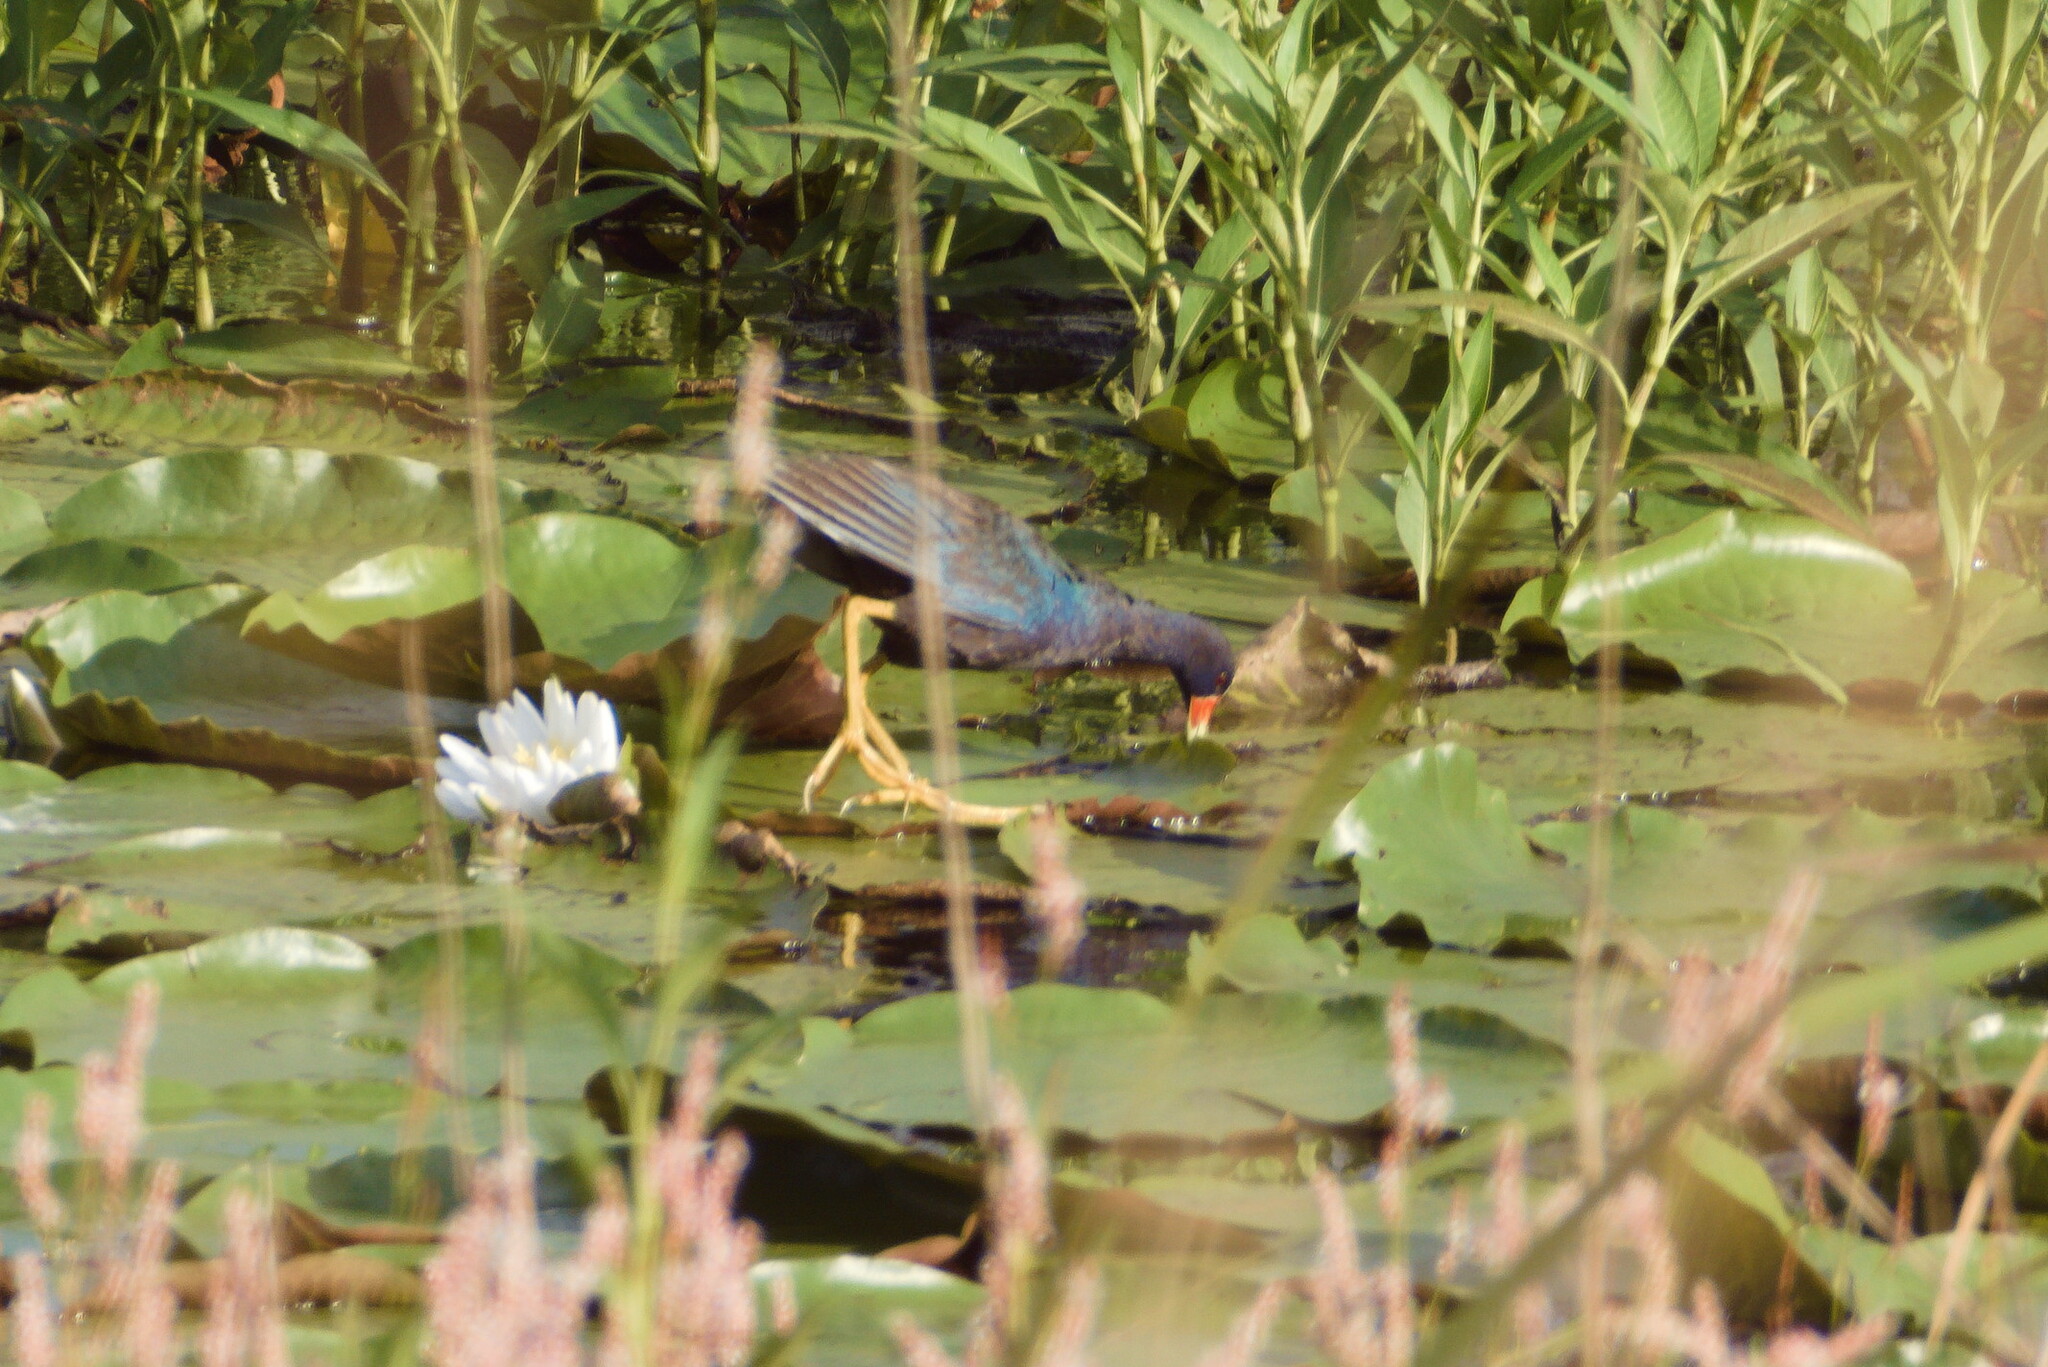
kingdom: Animalia
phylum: Chordata
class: Aves
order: Gruiformes
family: Rallidae
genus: Porphyrio
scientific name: Porphyrio martinica
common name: Purple gallinule
